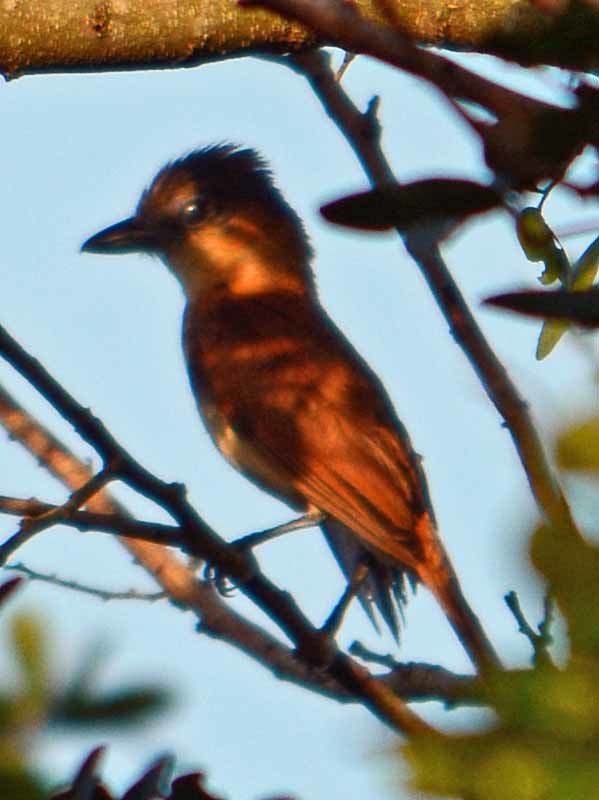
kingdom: Animalia
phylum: Chordata
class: Aves
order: Passeriformes
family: Cotingidae
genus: Pachyramphus
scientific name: Pachyramphus aglaiae
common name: Rose-throated becard
